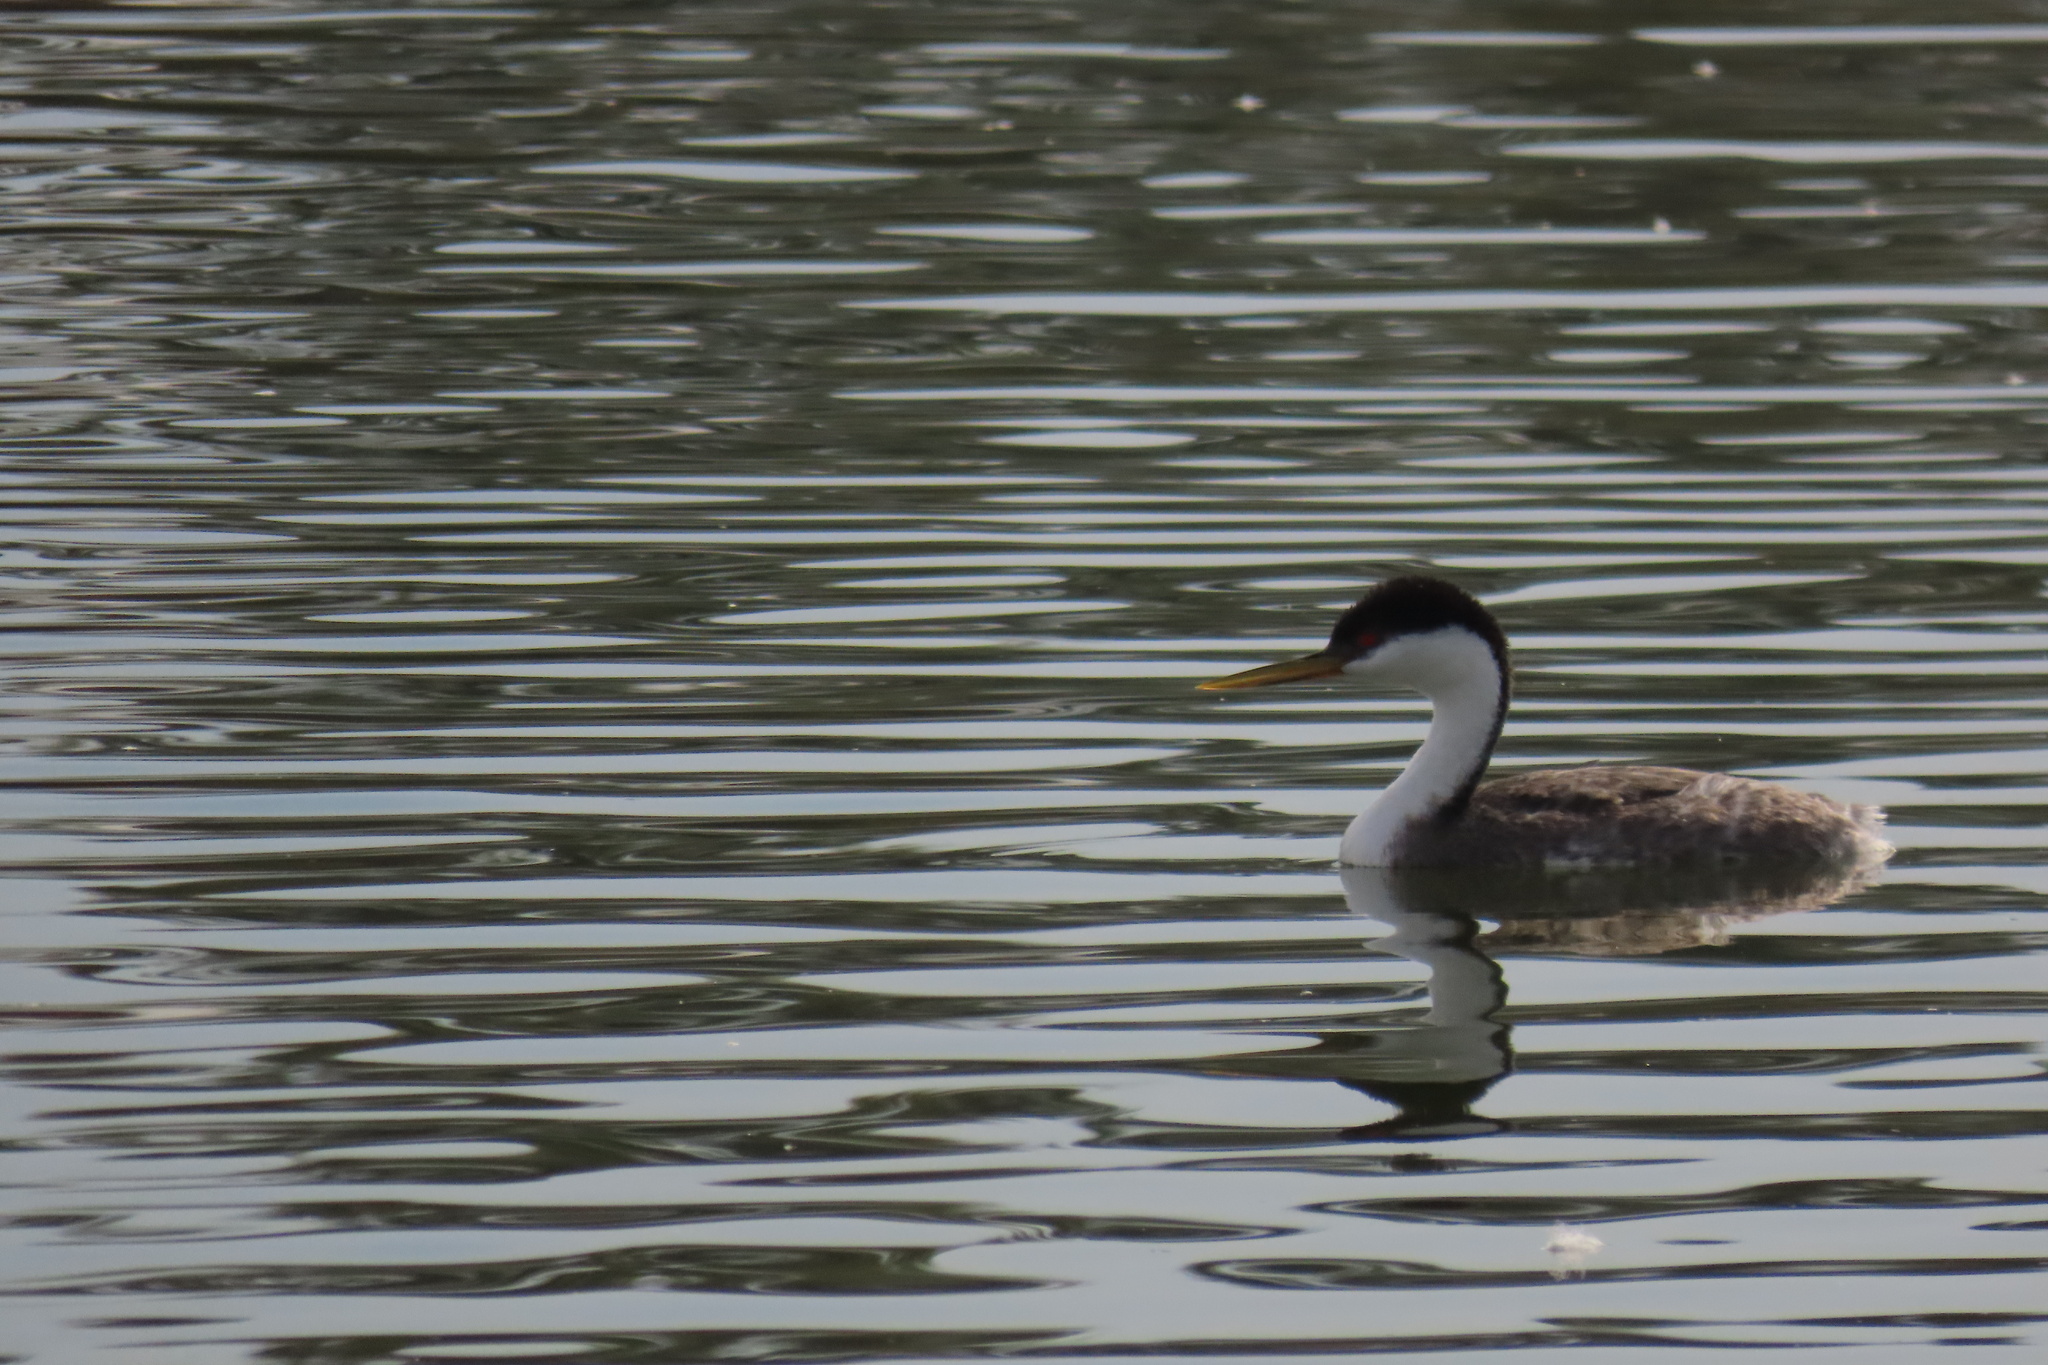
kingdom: Animalia
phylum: Chordata
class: Aves
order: Podicipediformes
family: Podicipedidae
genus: Aechmophorus
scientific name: Aechmophorus occidentalis
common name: Western grebe
